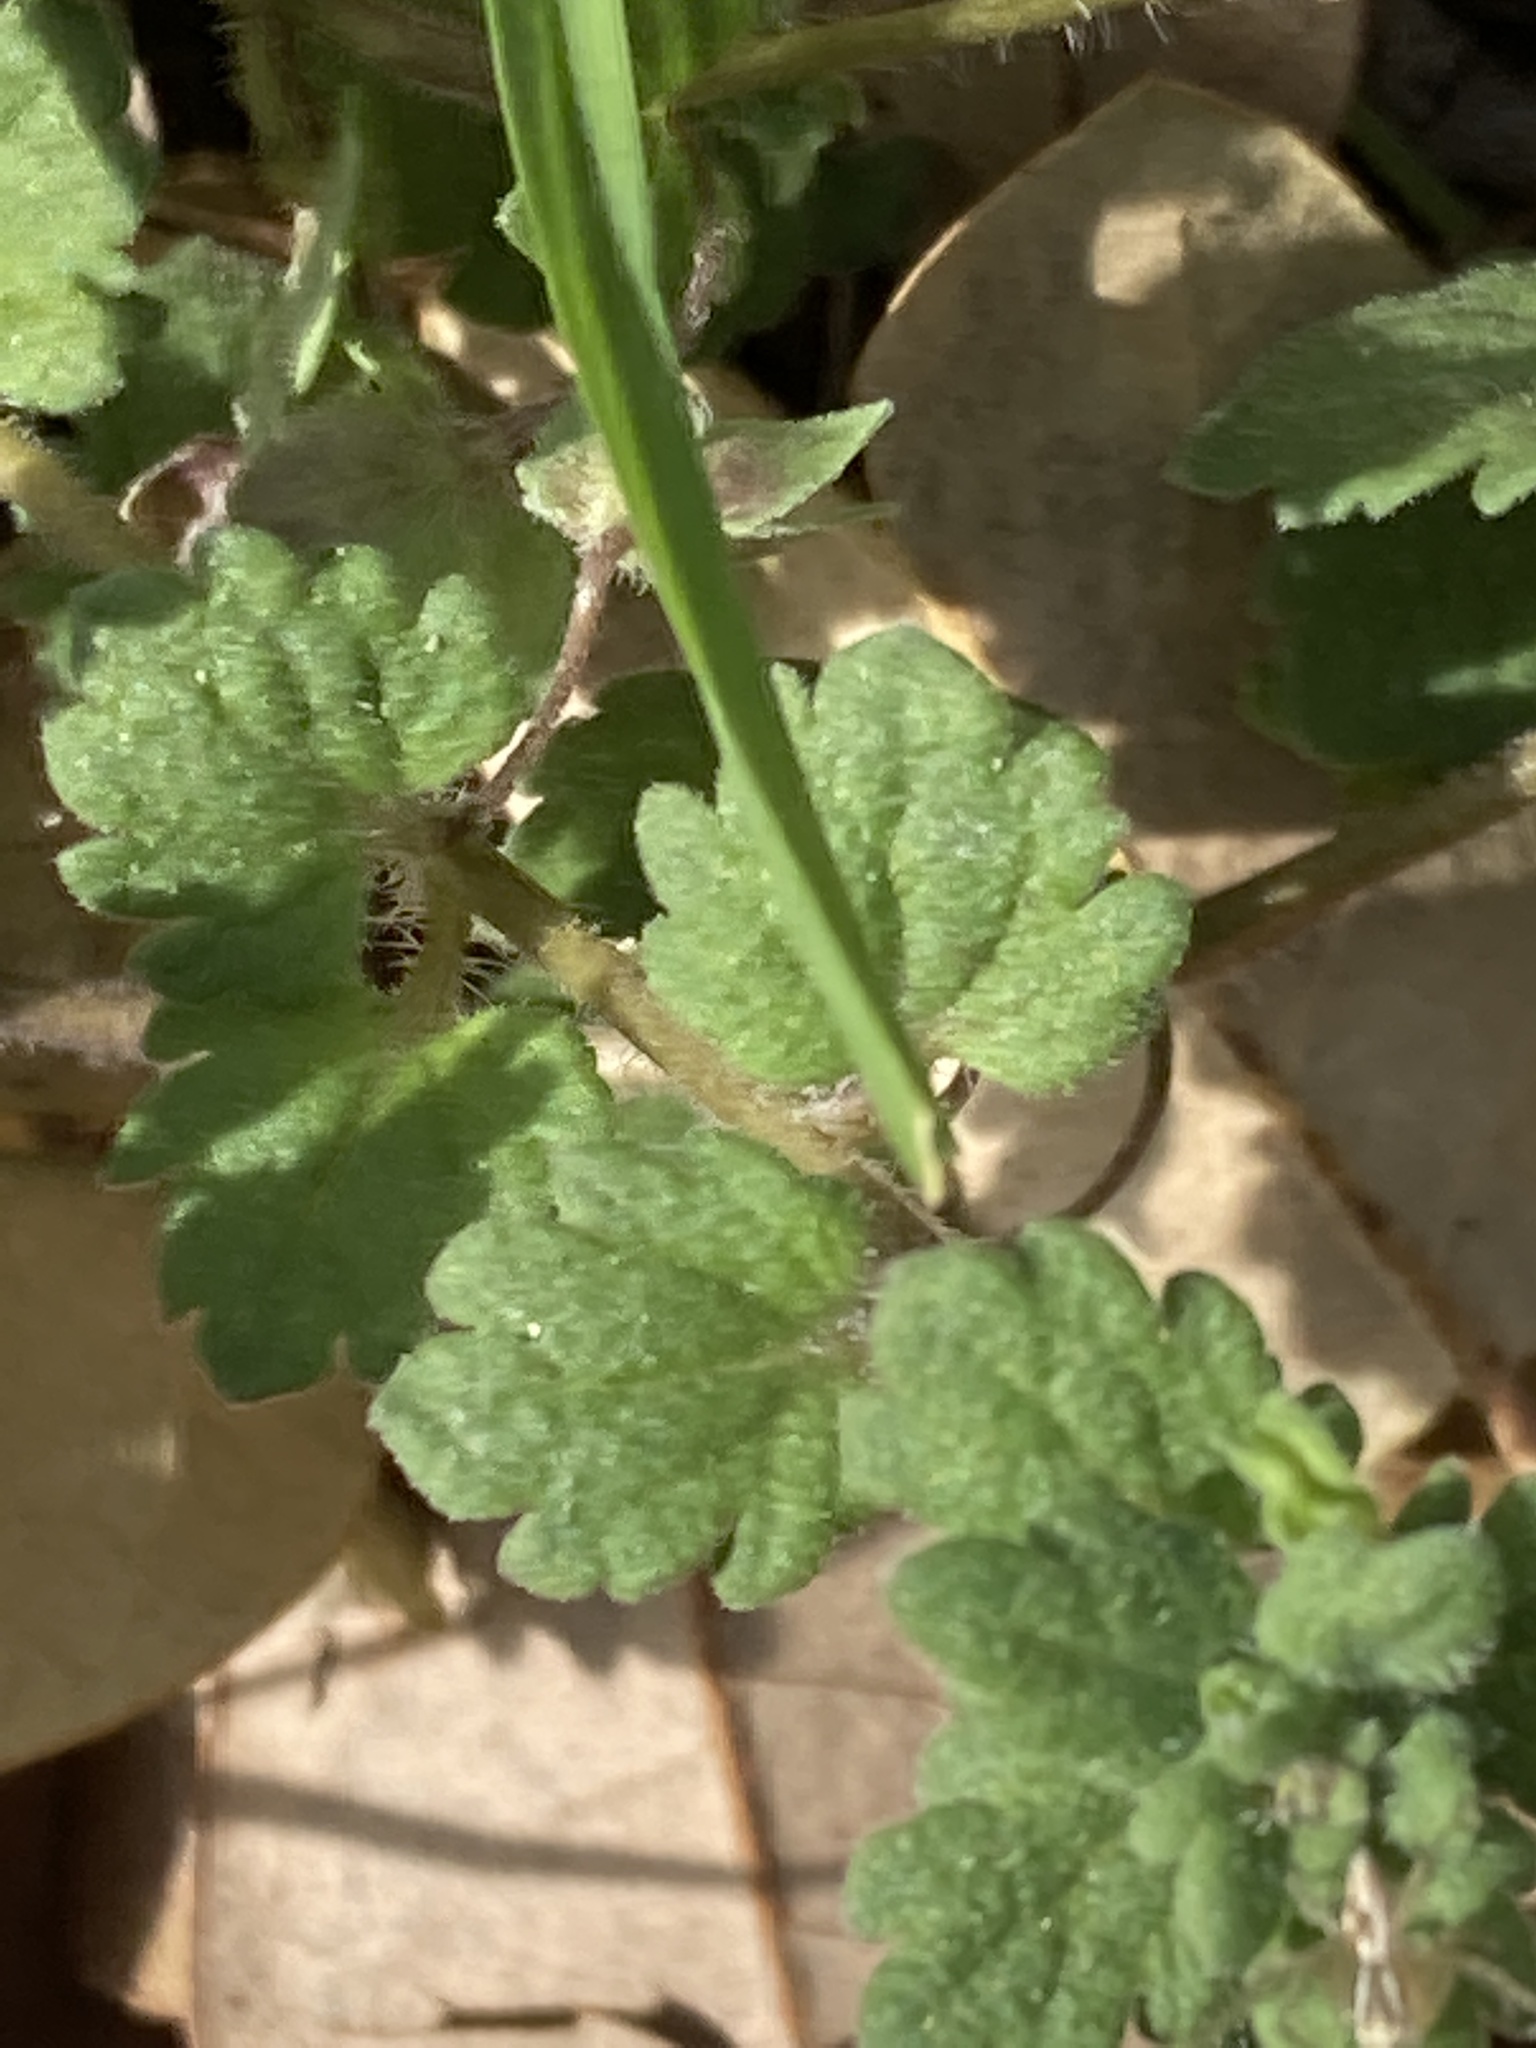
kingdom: Plantae
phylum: Tracheophyta
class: Magnoliopsida
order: Lamiales
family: Plantaginaceae
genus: Veronica
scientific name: Veronica polita
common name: Grey field-speedwell
